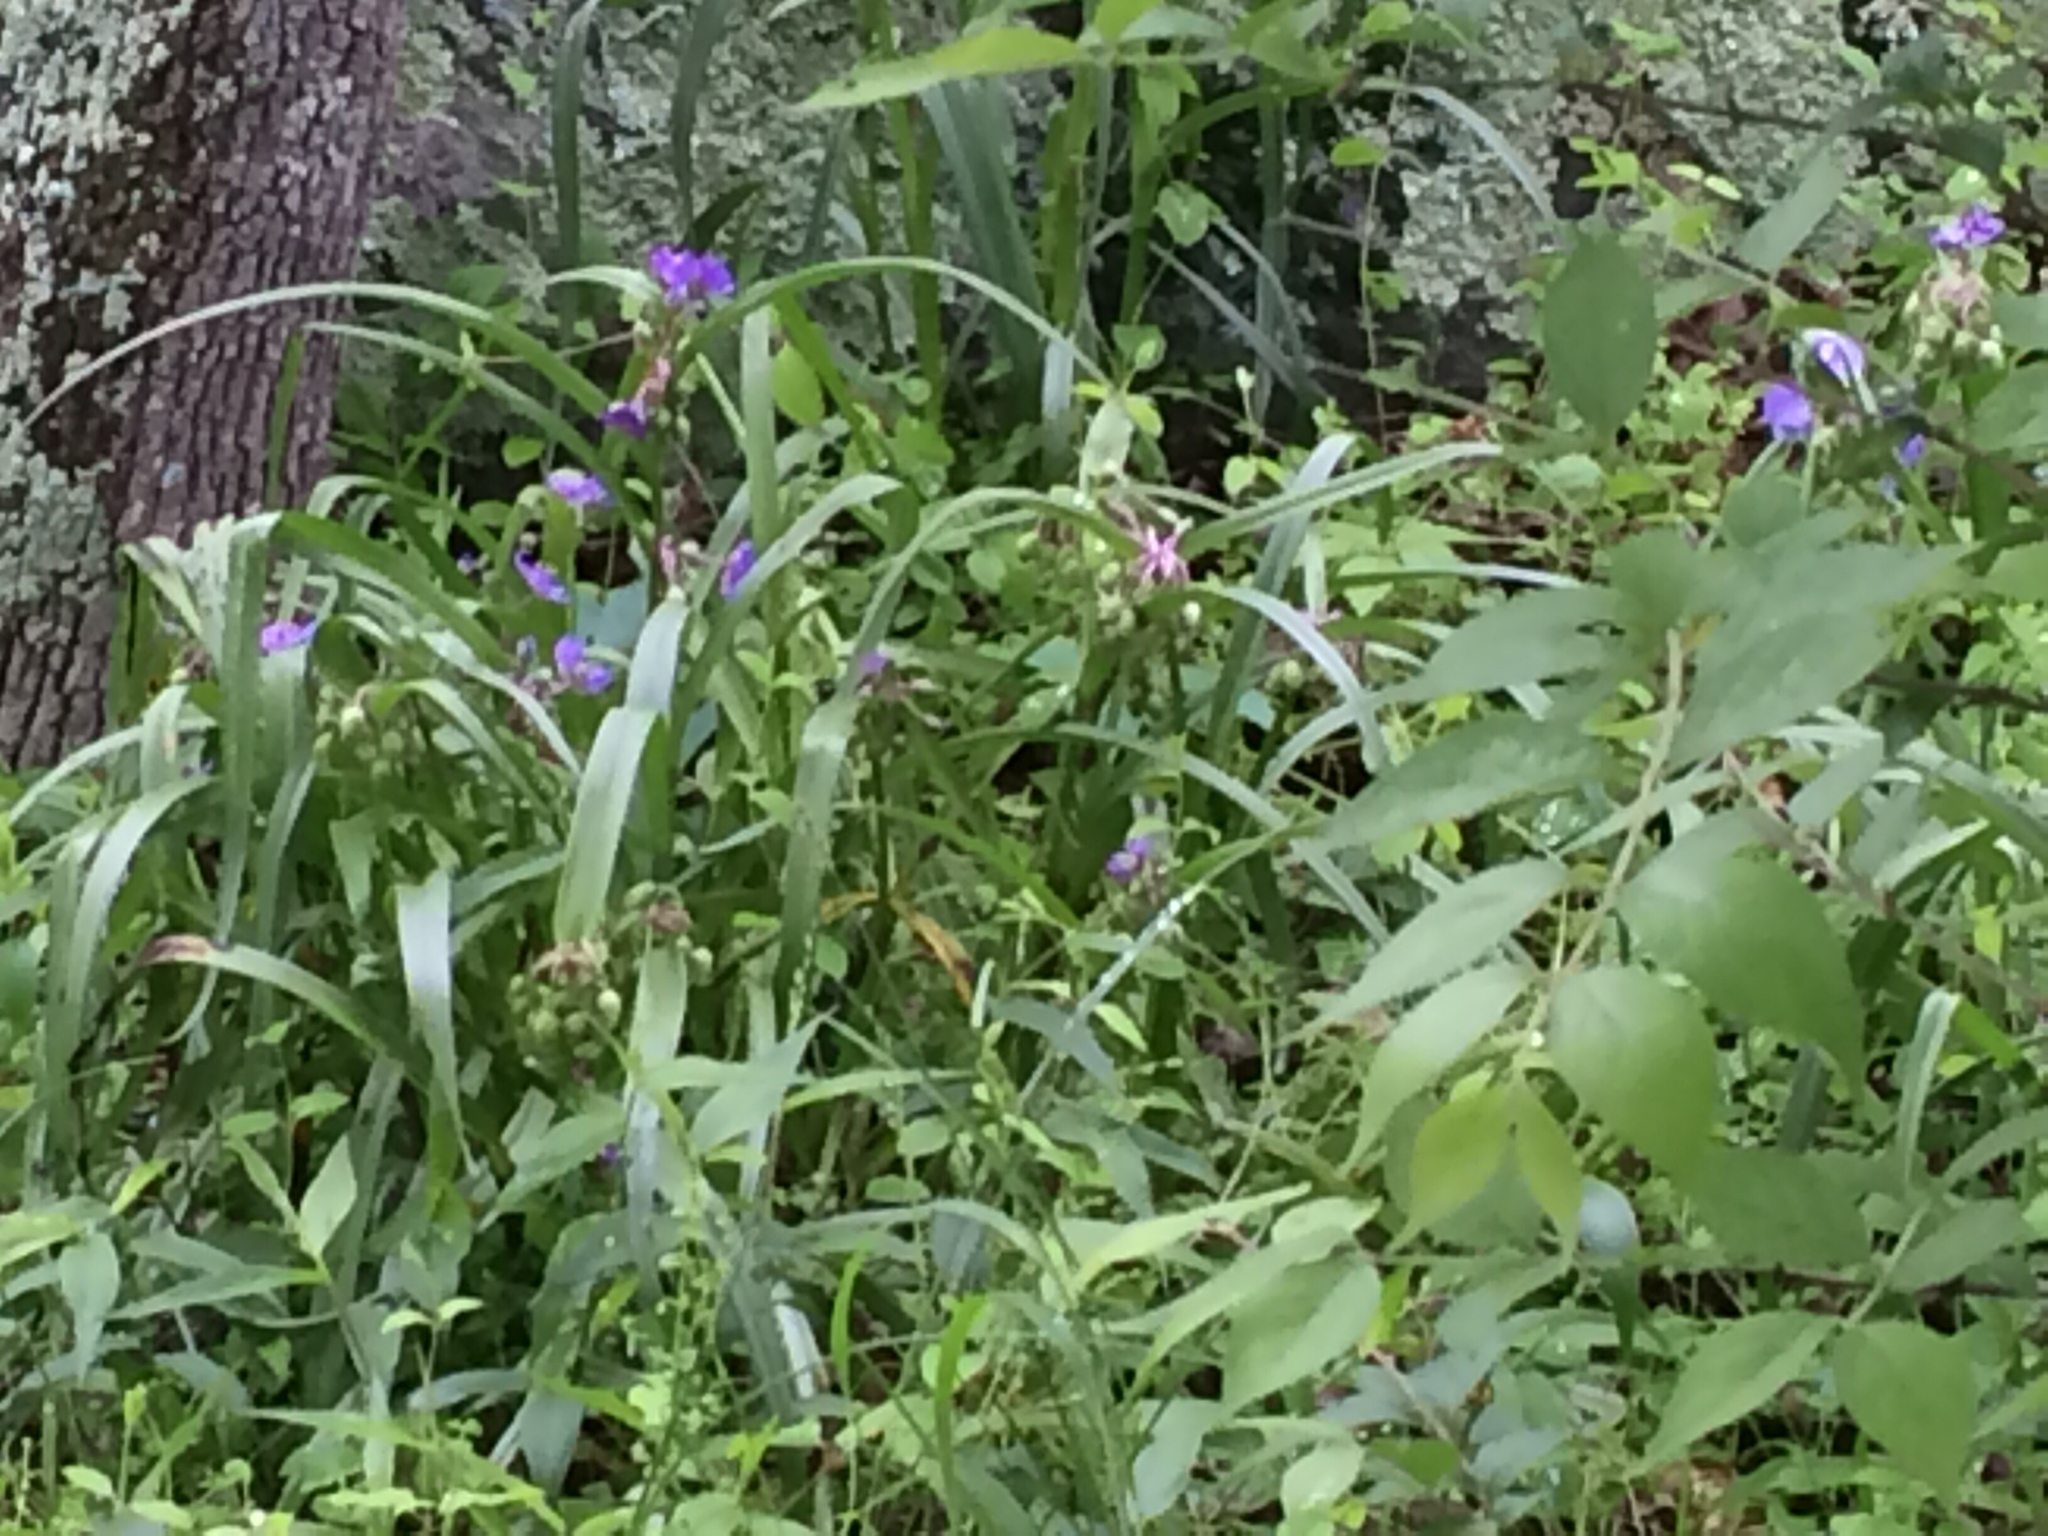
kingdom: Plantae
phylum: Tracheophyta
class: Liliopsida
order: Commelinales
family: Commelinaceae
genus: Tradescantia
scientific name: Tradescantia virginiana
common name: Spiderwort
